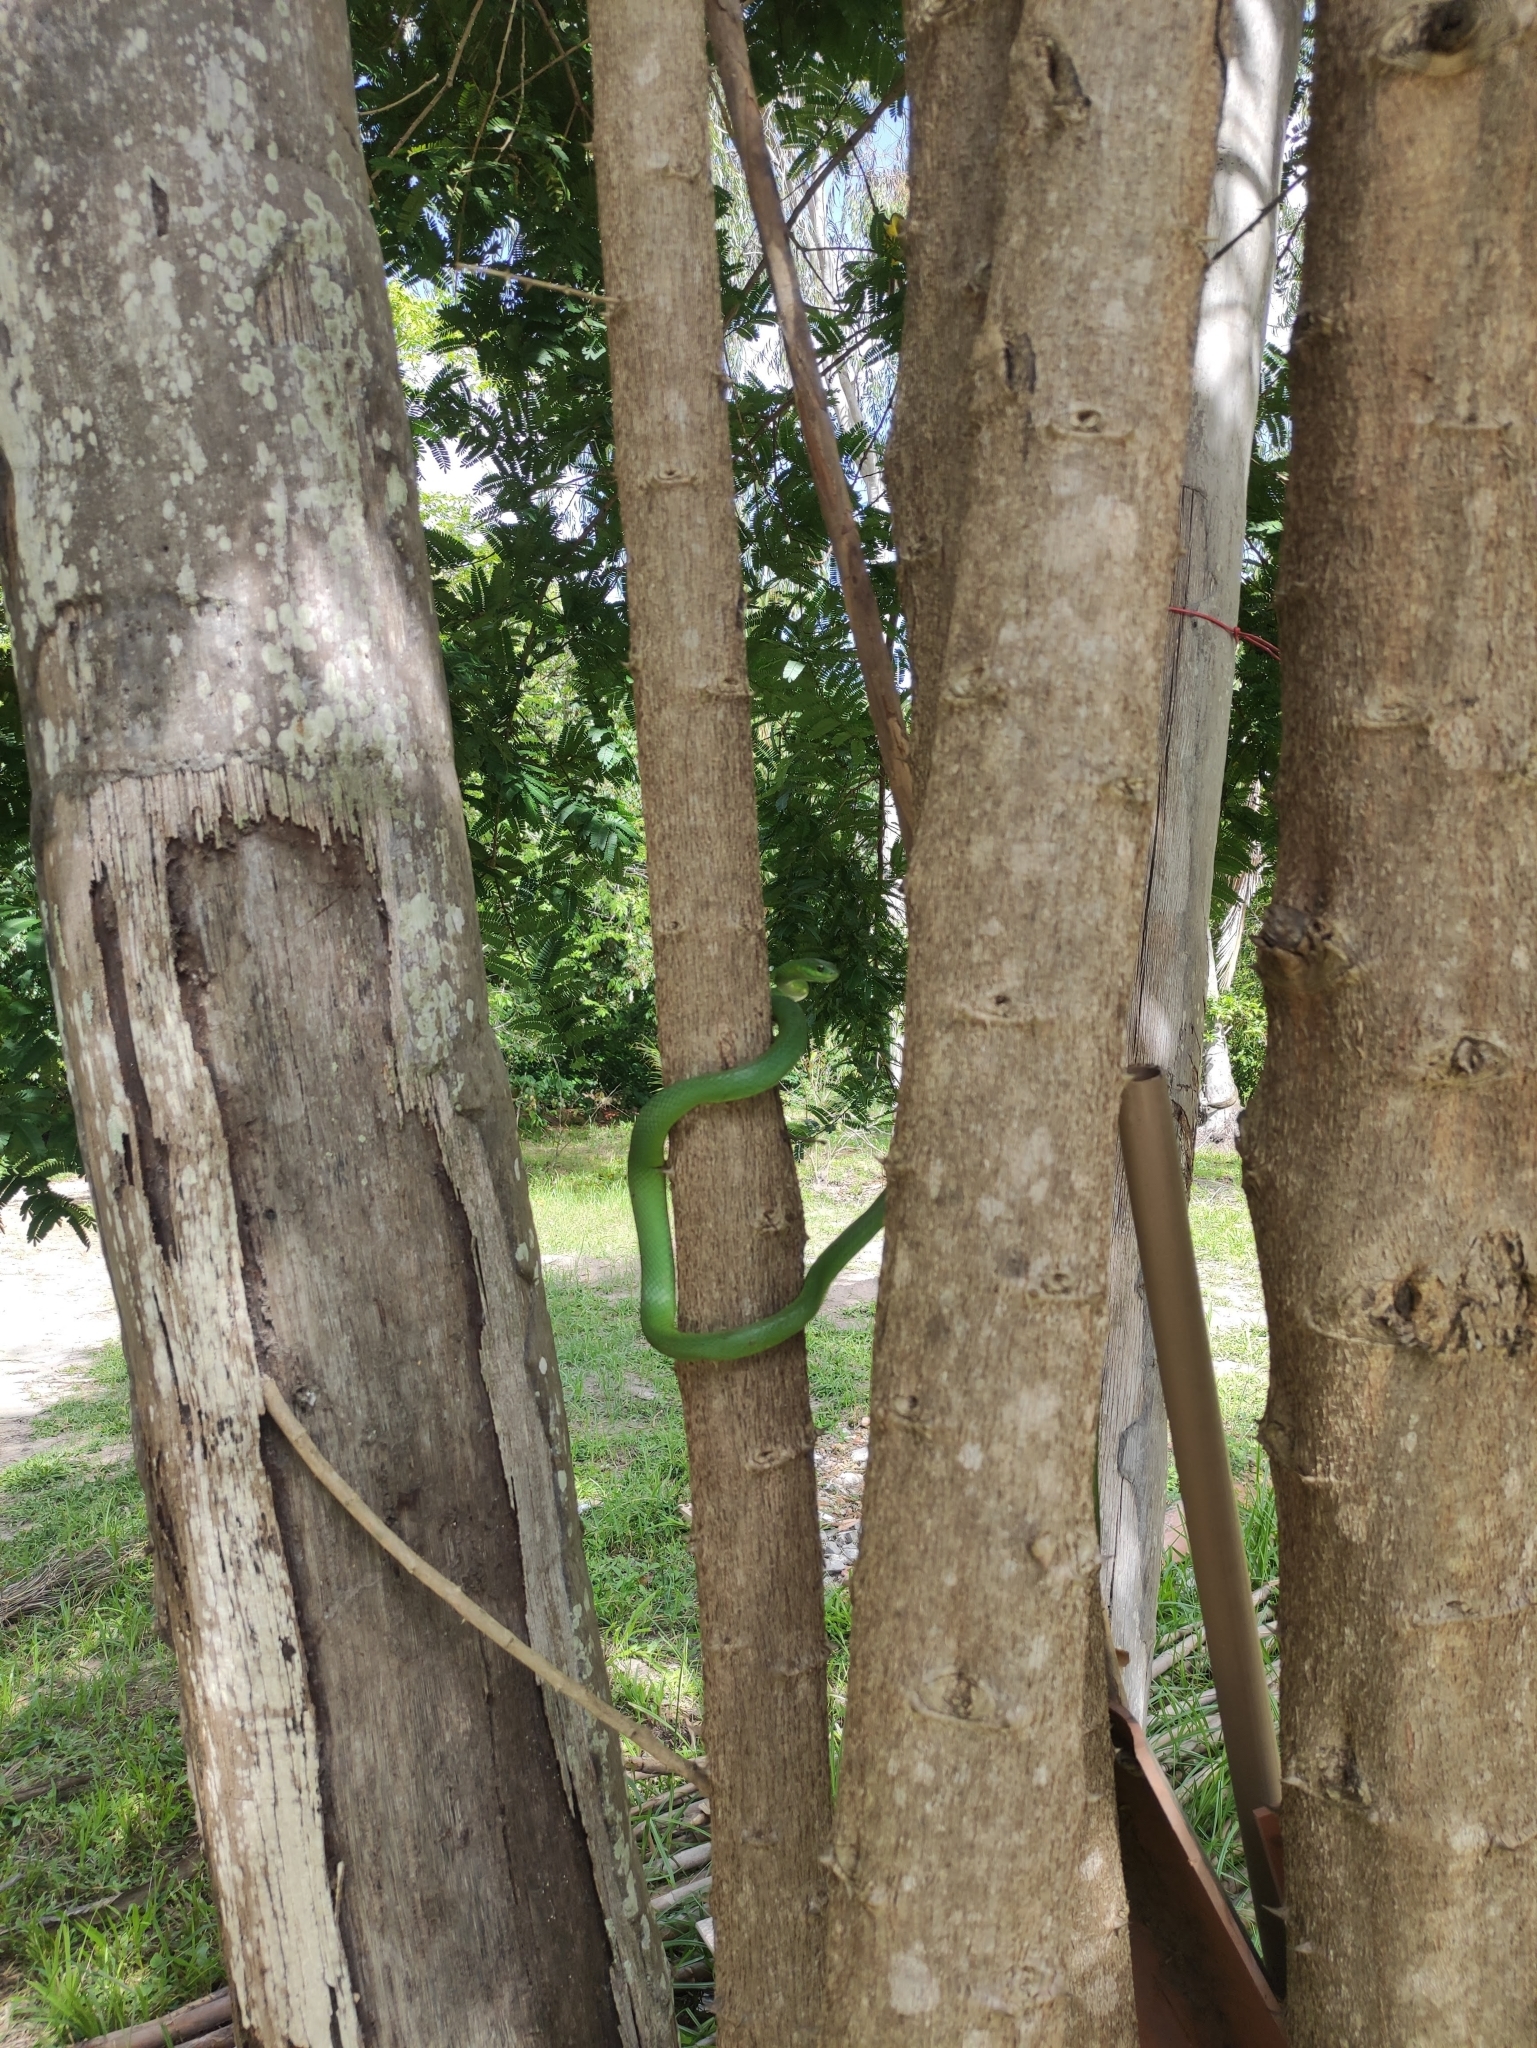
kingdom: Animalia
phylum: Chordata
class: Squamata
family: Colubridae
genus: Philodryas
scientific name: Philodryas olfersii
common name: Lichtenstein's green racer
